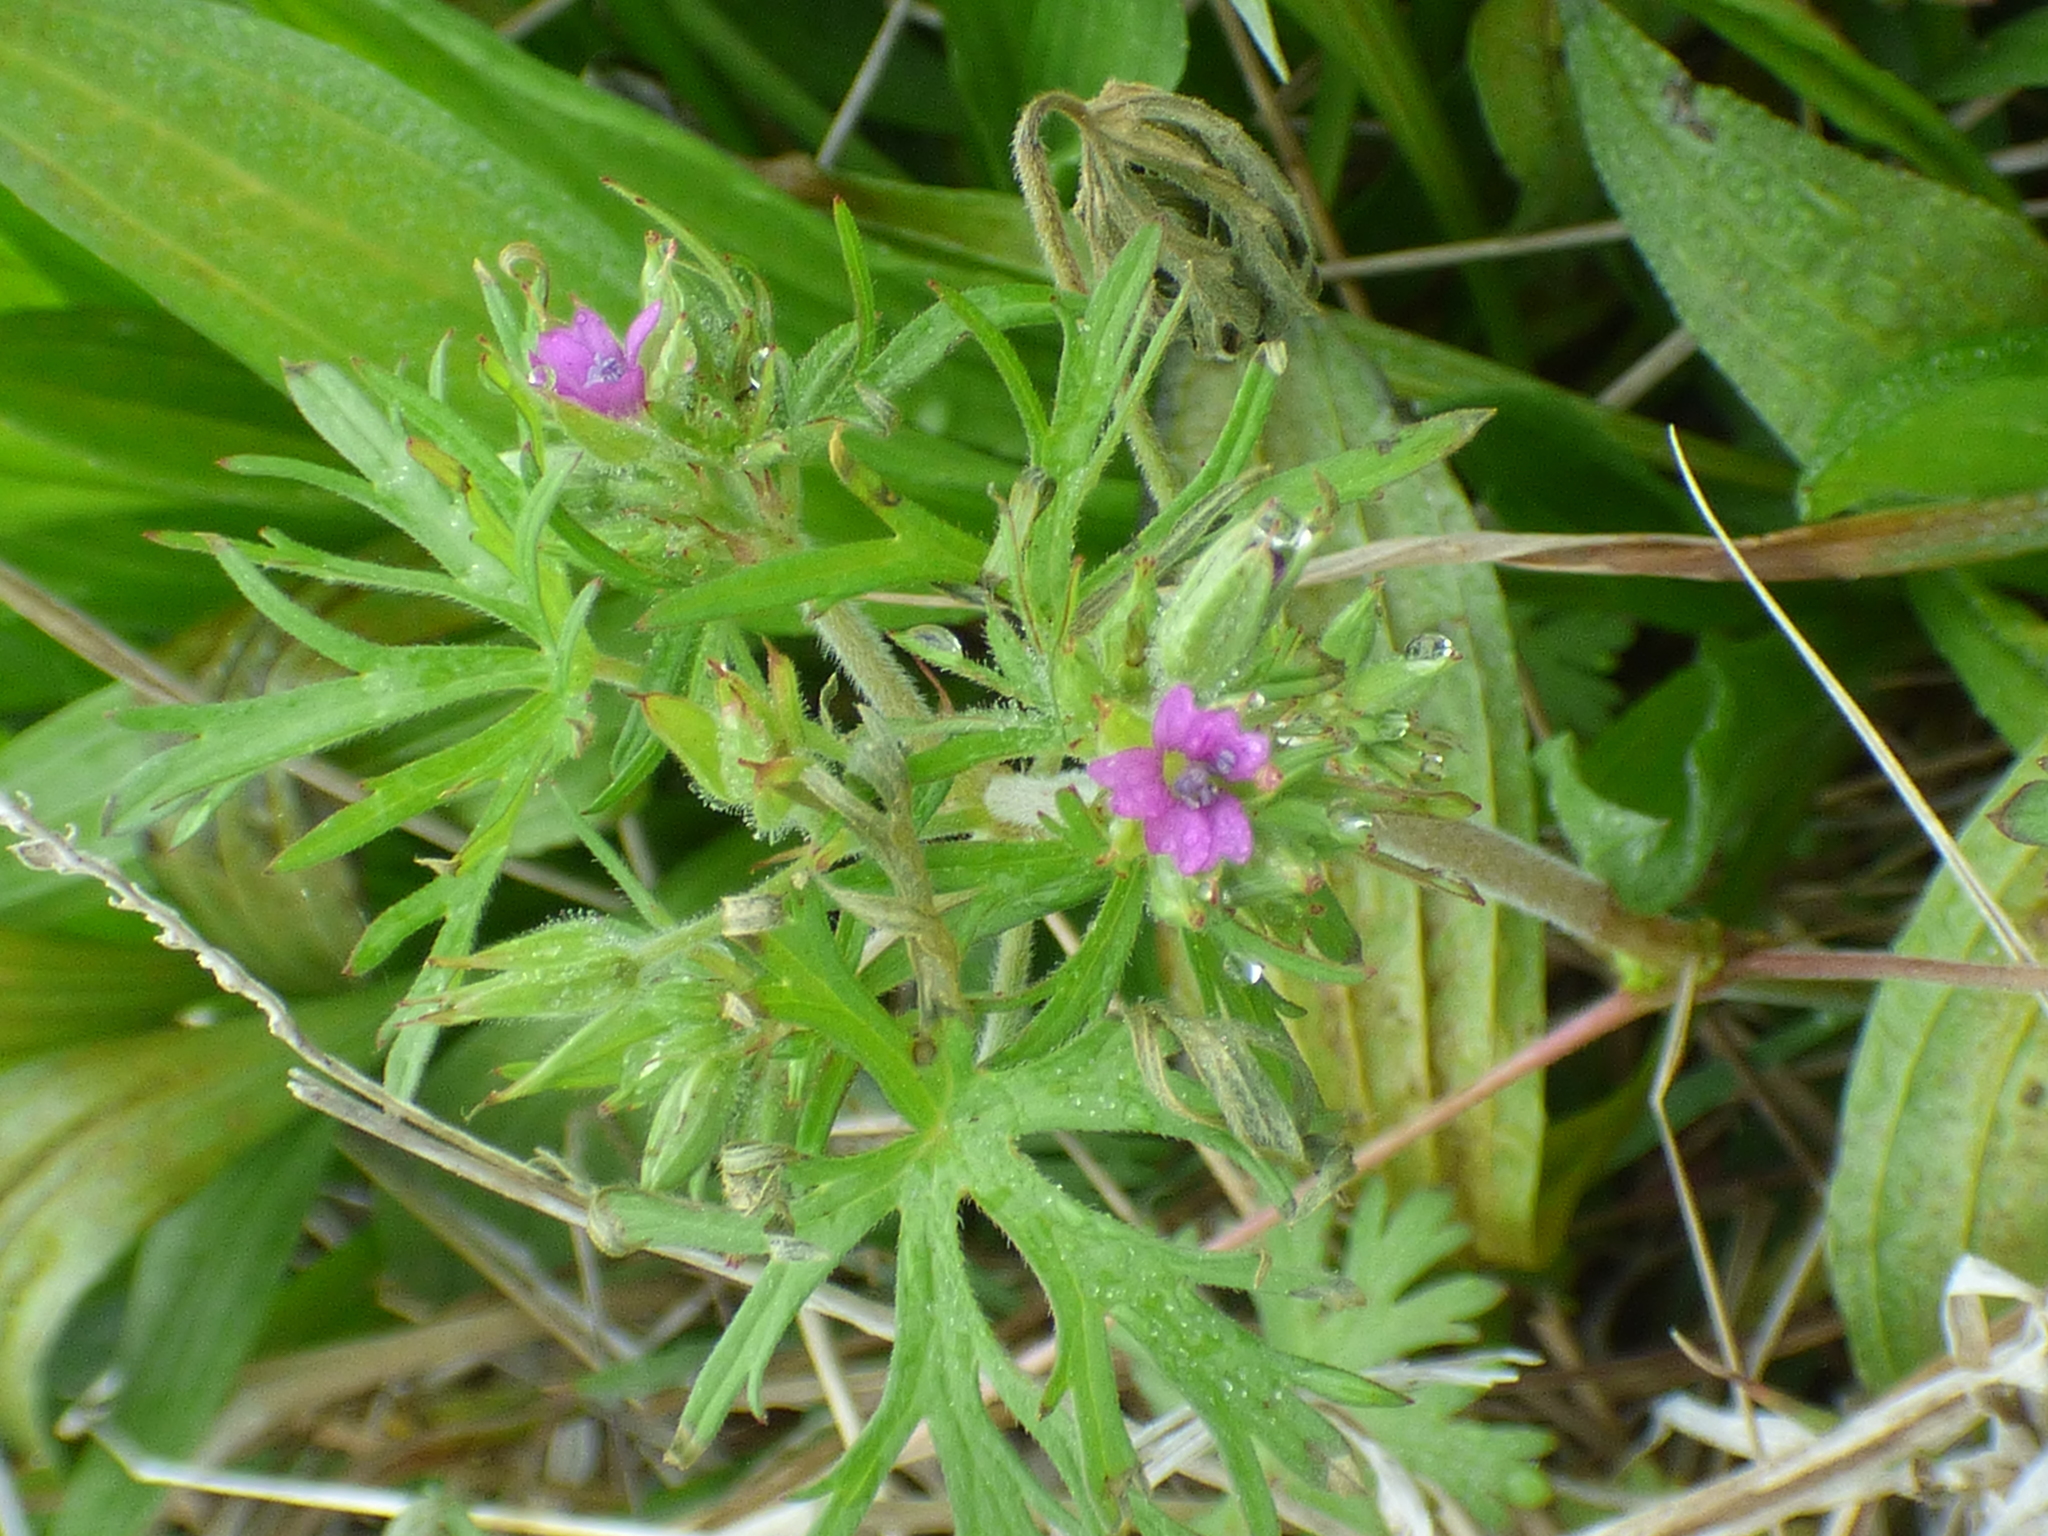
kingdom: Plantae
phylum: Tracheophyta
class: Magnoliopsida
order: Geraniales
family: Geraniaceae
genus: Geranium
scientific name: Geranium dissectum
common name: Cut-leaved crane's-bill
